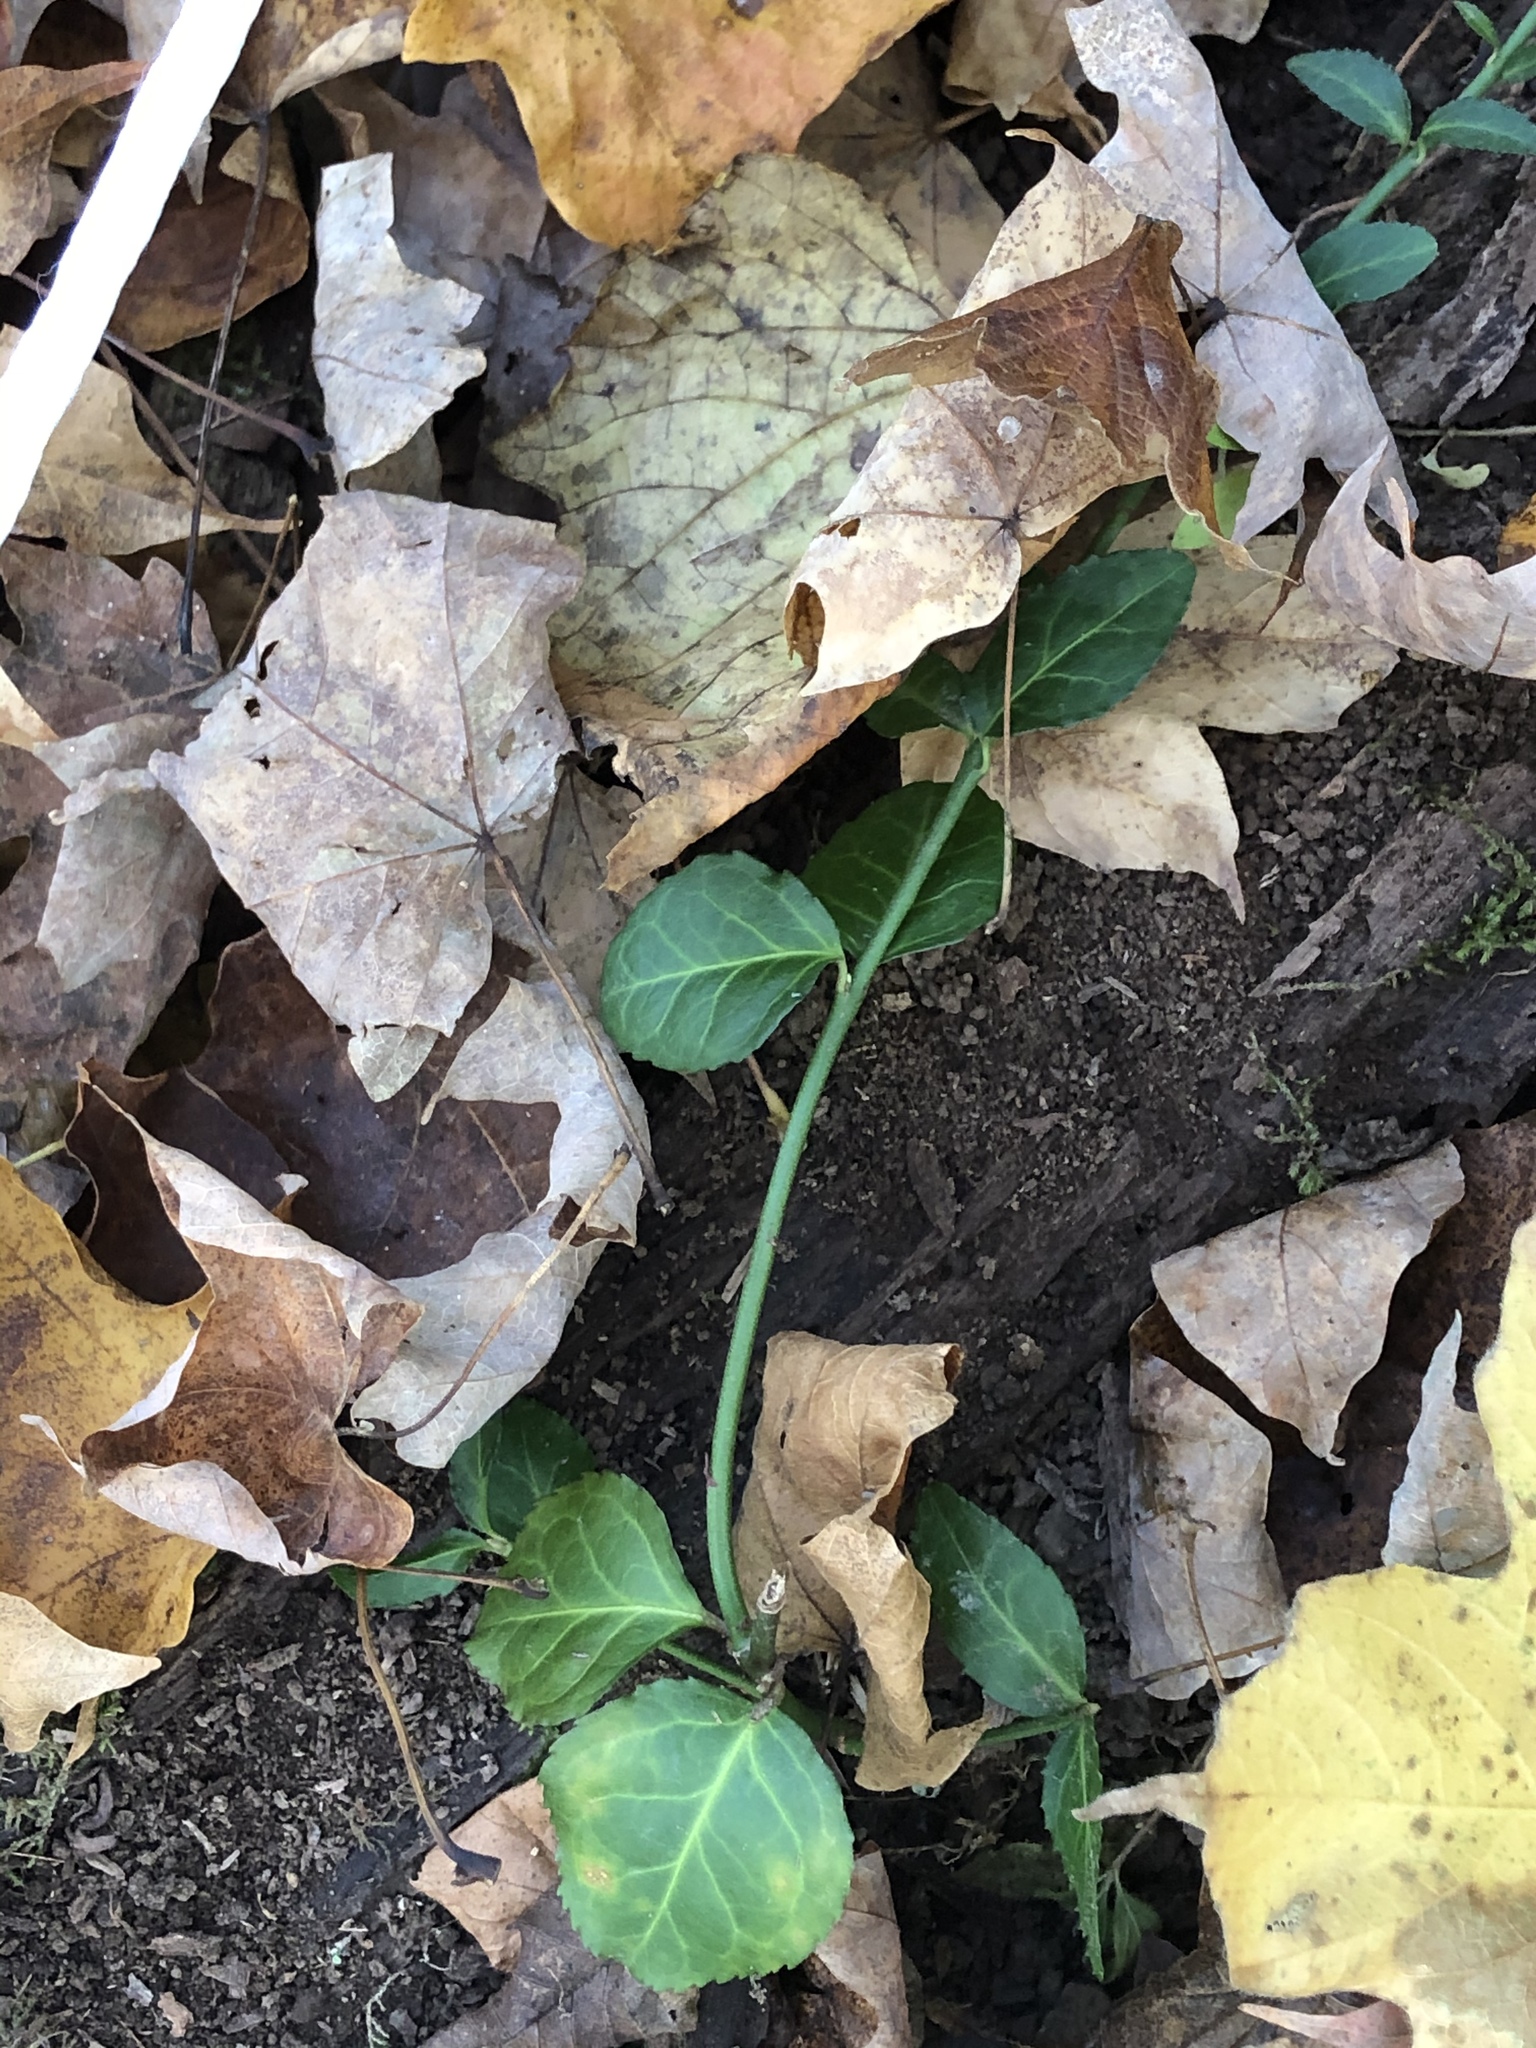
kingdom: Plantae
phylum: Tracheophyta
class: Magnoliopsida
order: Celastrales
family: Celastraceae
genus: Euonymus
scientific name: Euonymus fortunei
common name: Climbing euonymus
